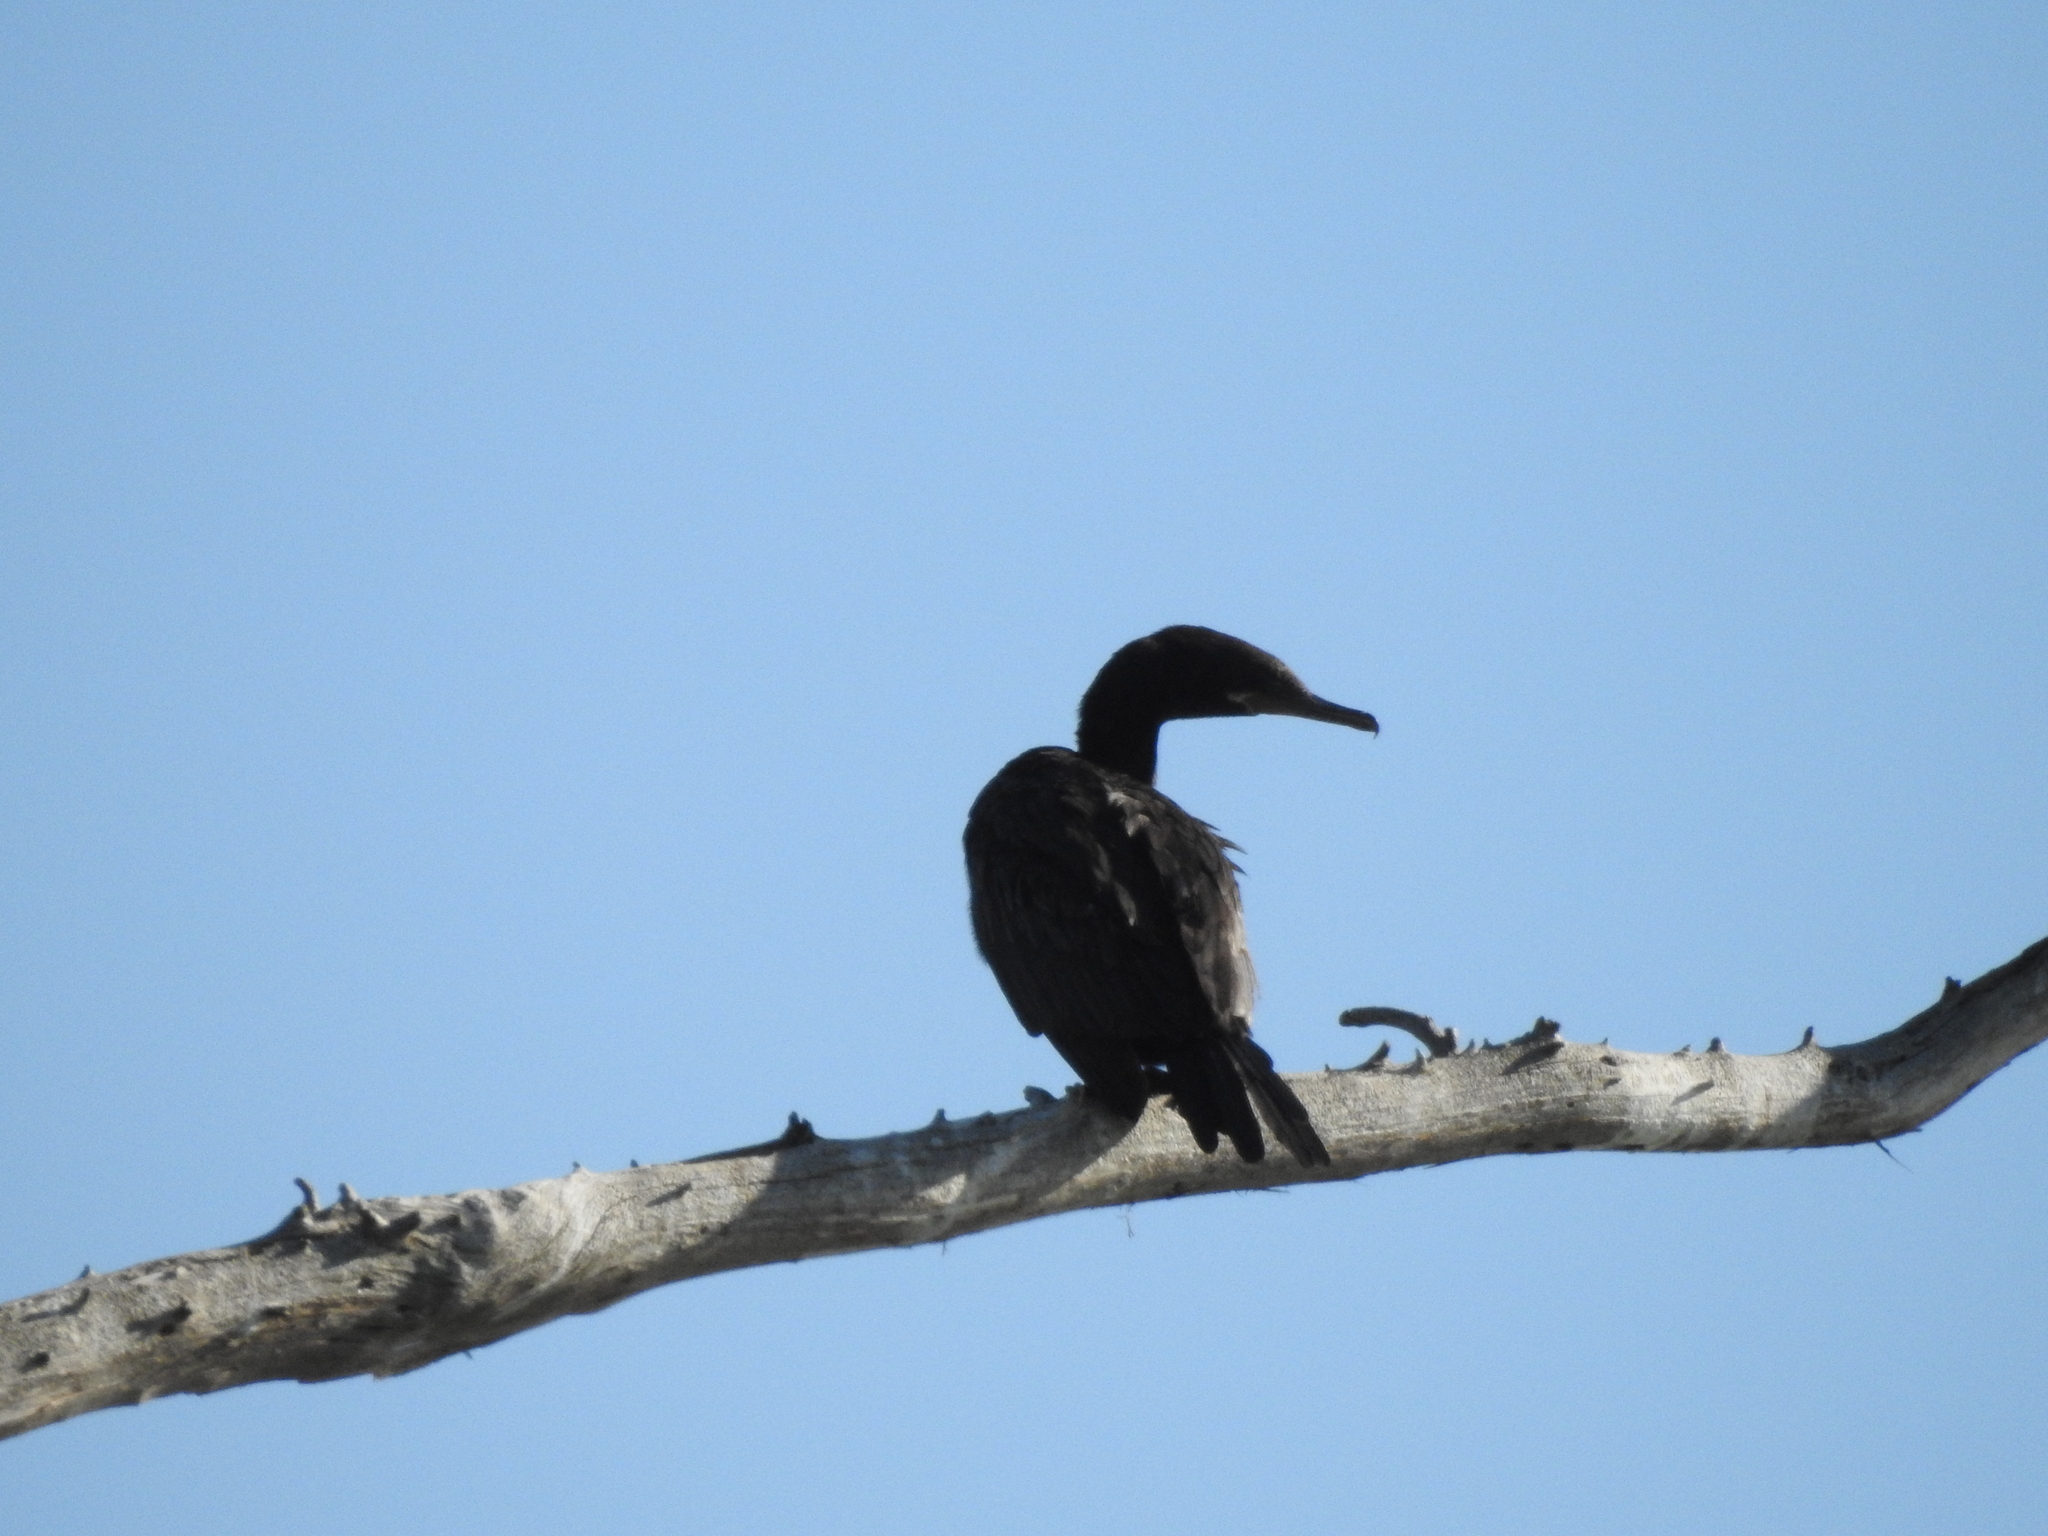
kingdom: Animalia
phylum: Chordata
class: Aves
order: Suliformes
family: Phalacrocoracidae
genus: Phalacrocorax
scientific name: Phalacrocorax brasilianus
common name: Neotropic cormorant
